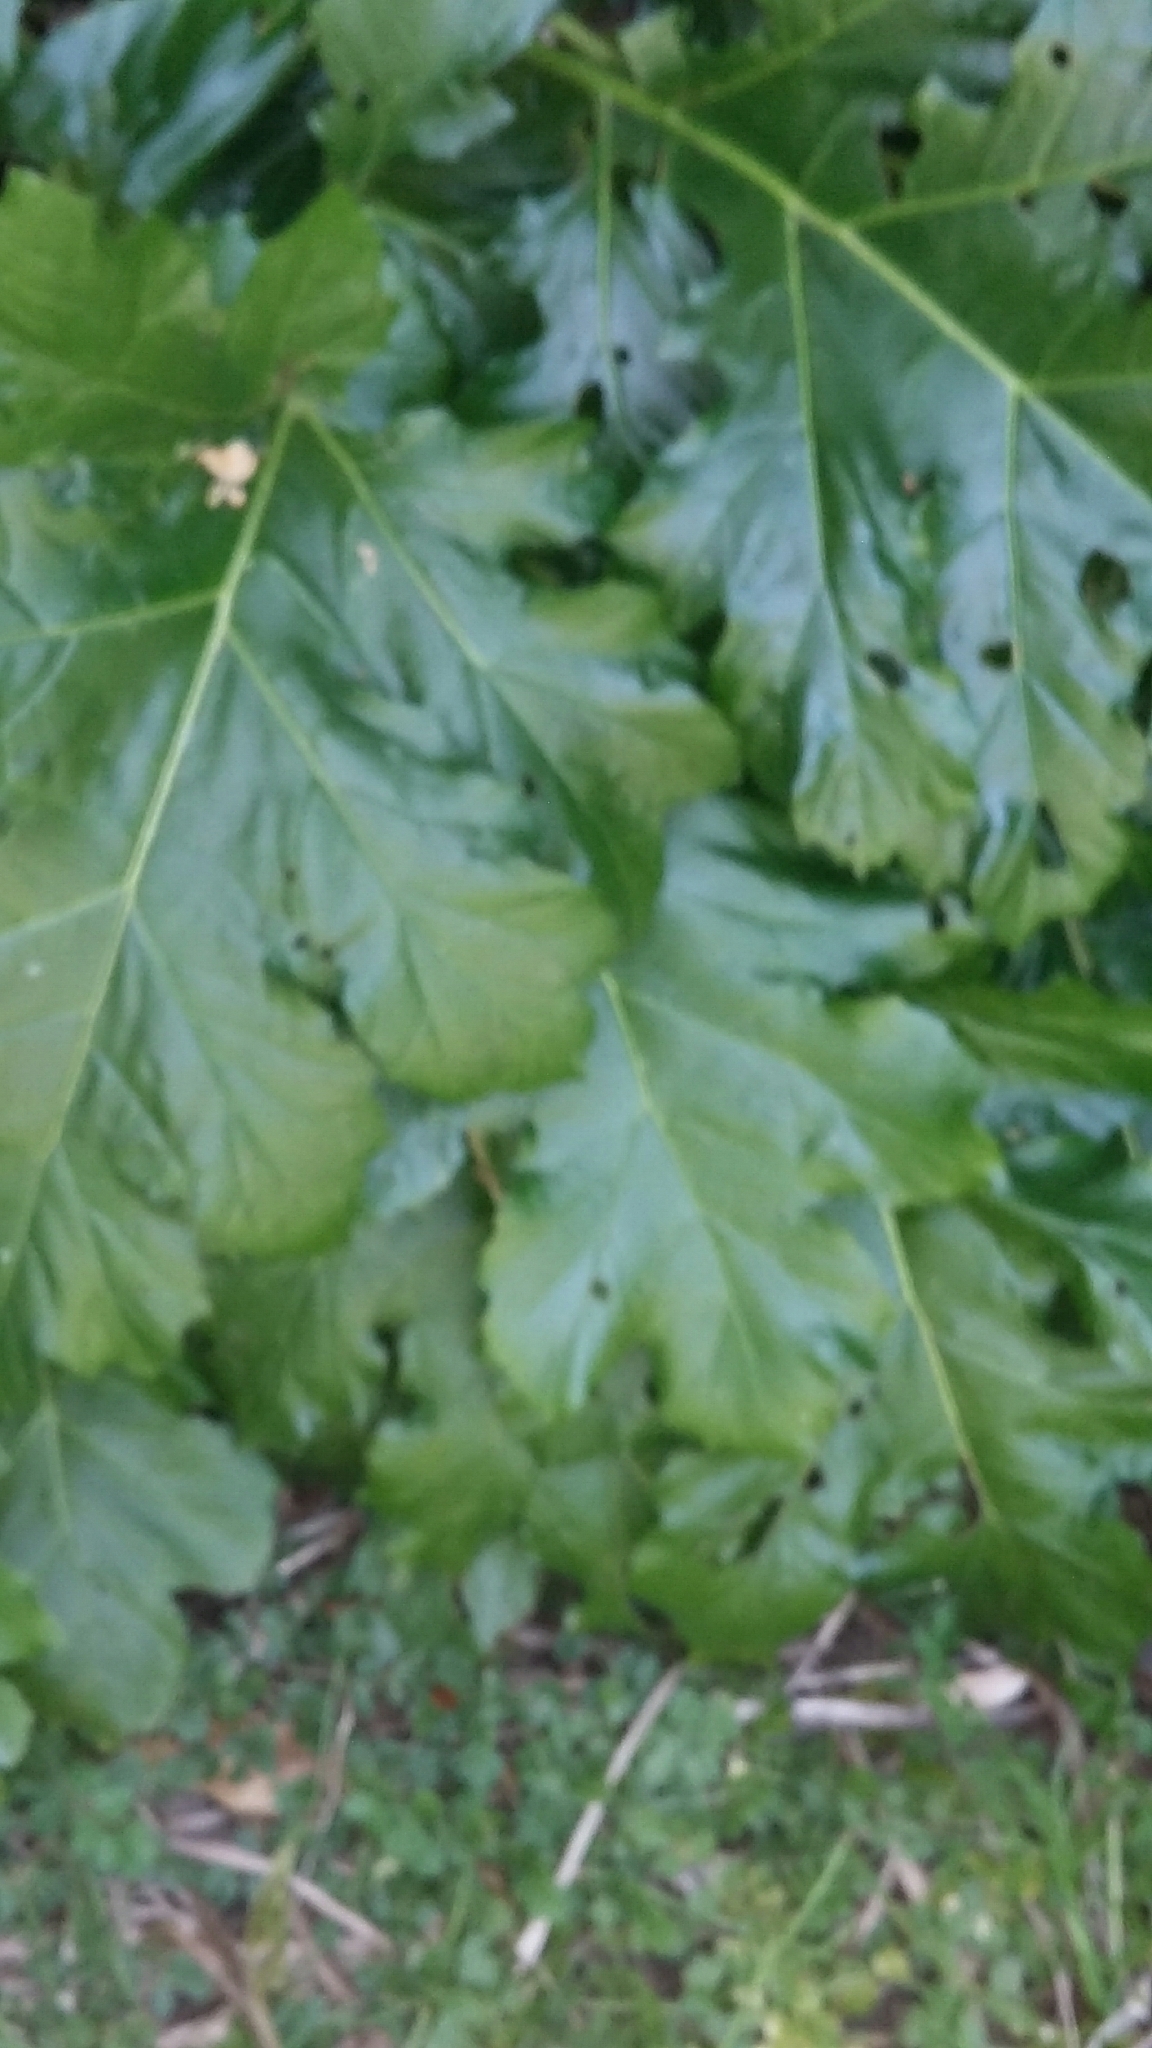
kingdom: Plantae
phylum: Tracheophyta
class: Magnoliopsida
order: Lamiales
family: Acanthaceae
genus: Acanthus
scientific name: Acanthus mollis
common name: Bear's-breech
